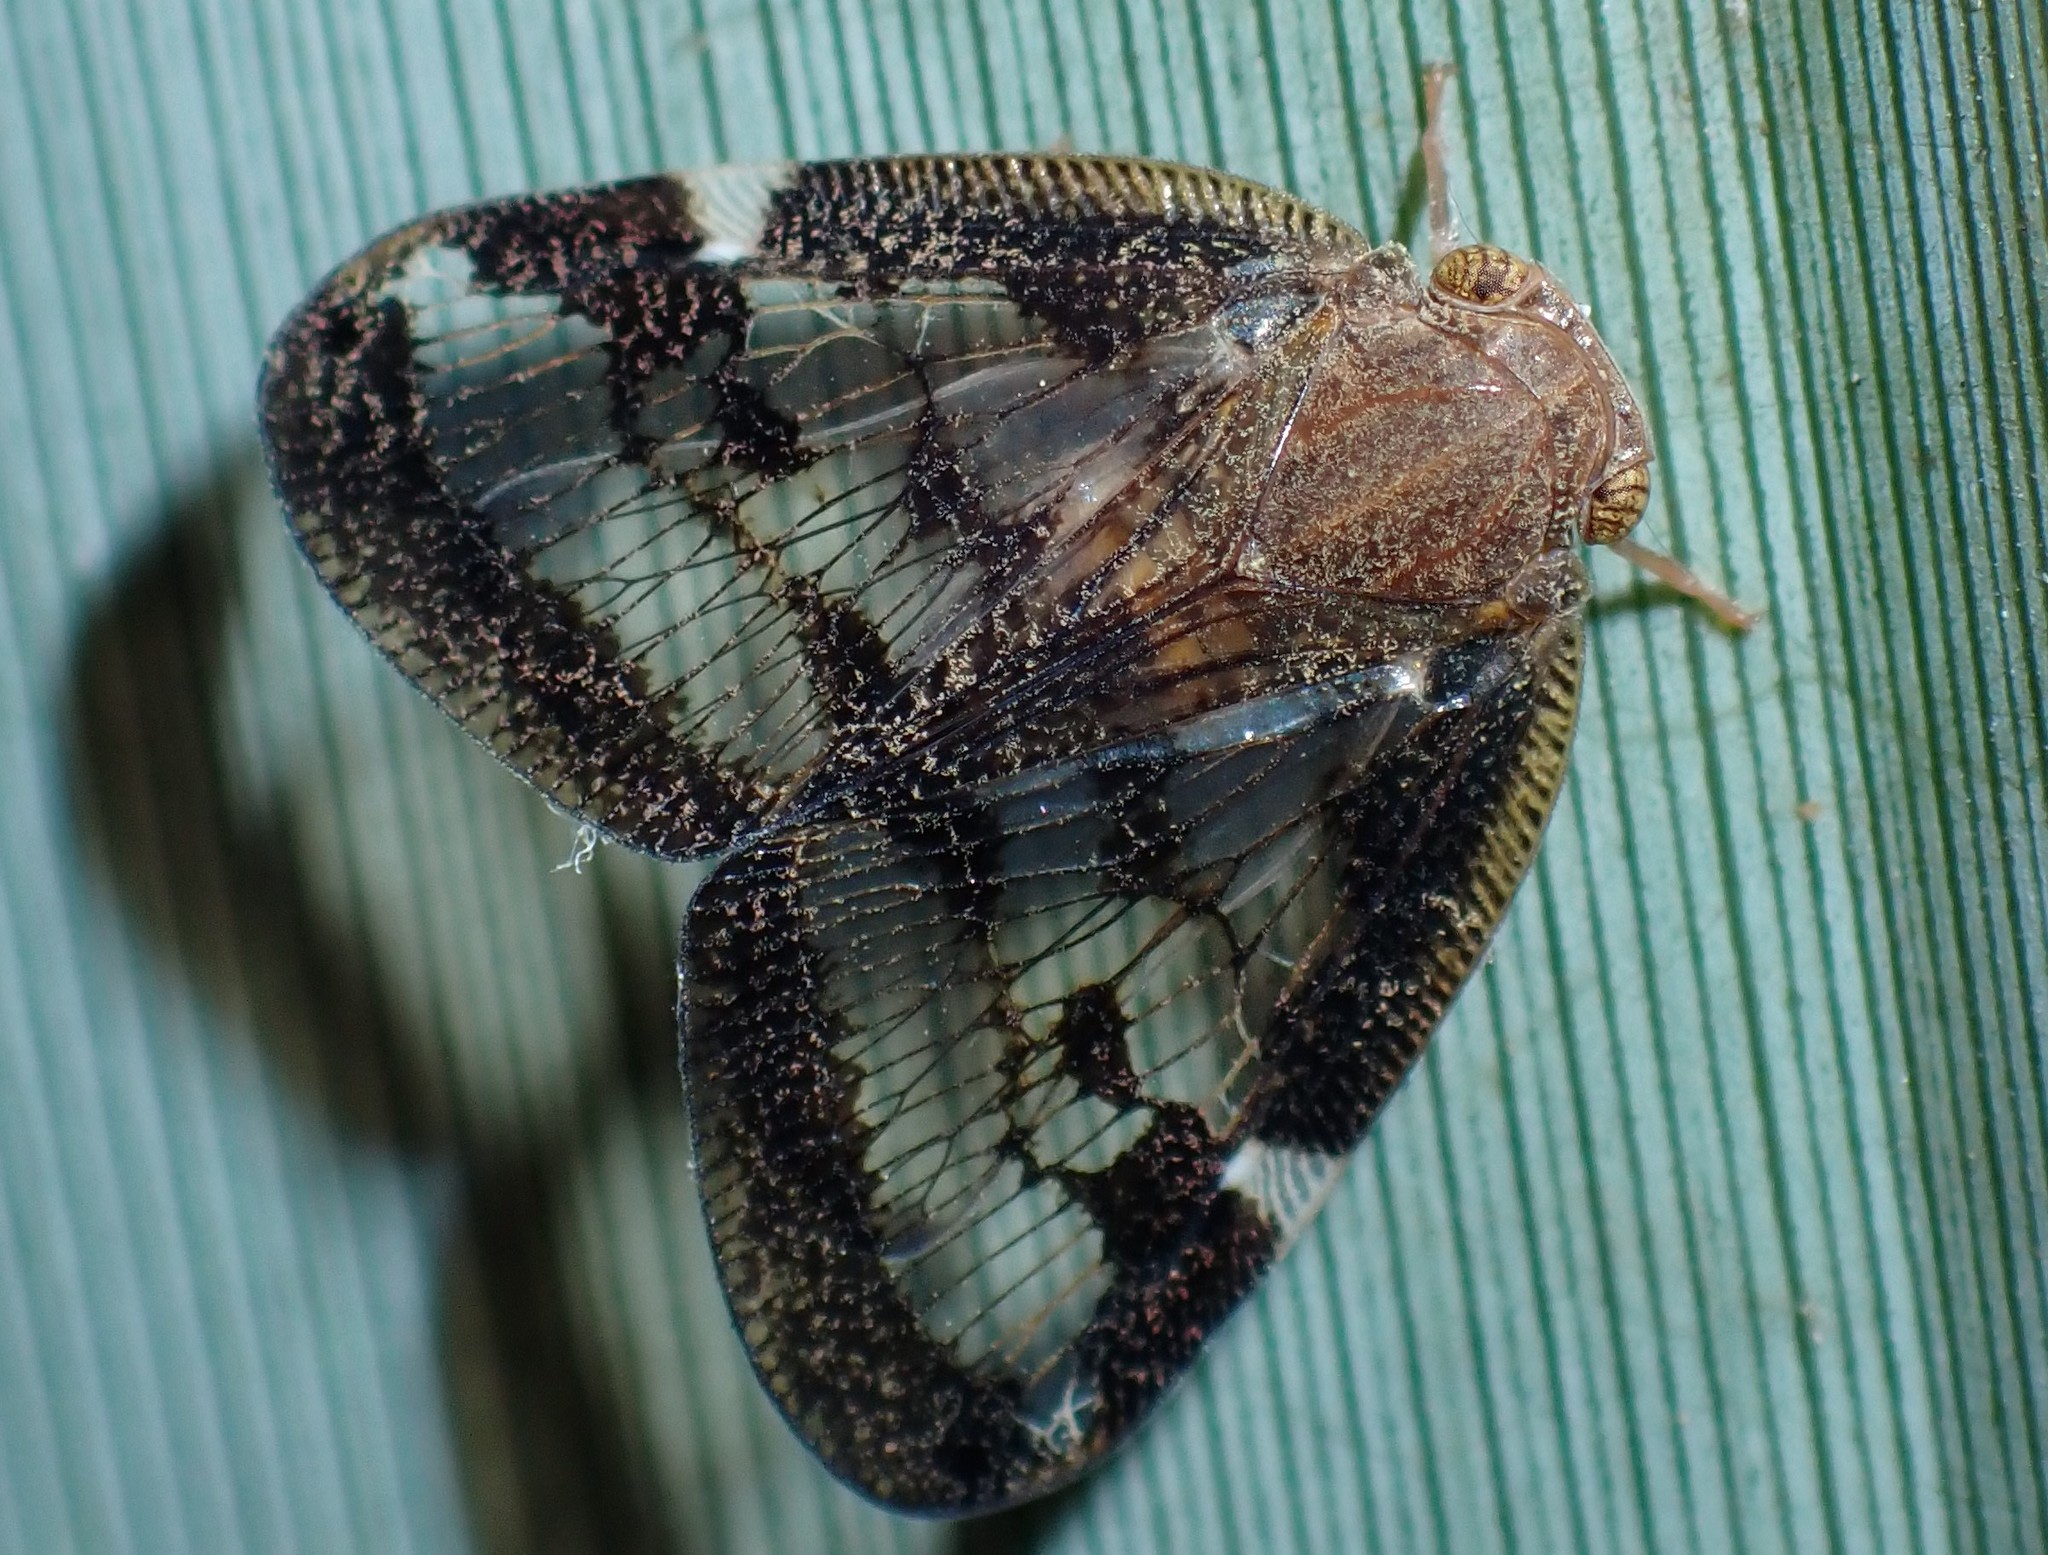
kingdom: Animalia
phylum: Arthropoda
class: Insecta
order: Hemiptera
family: Ricaniidae
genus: Scolypopa
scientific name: Scolypopa australis
